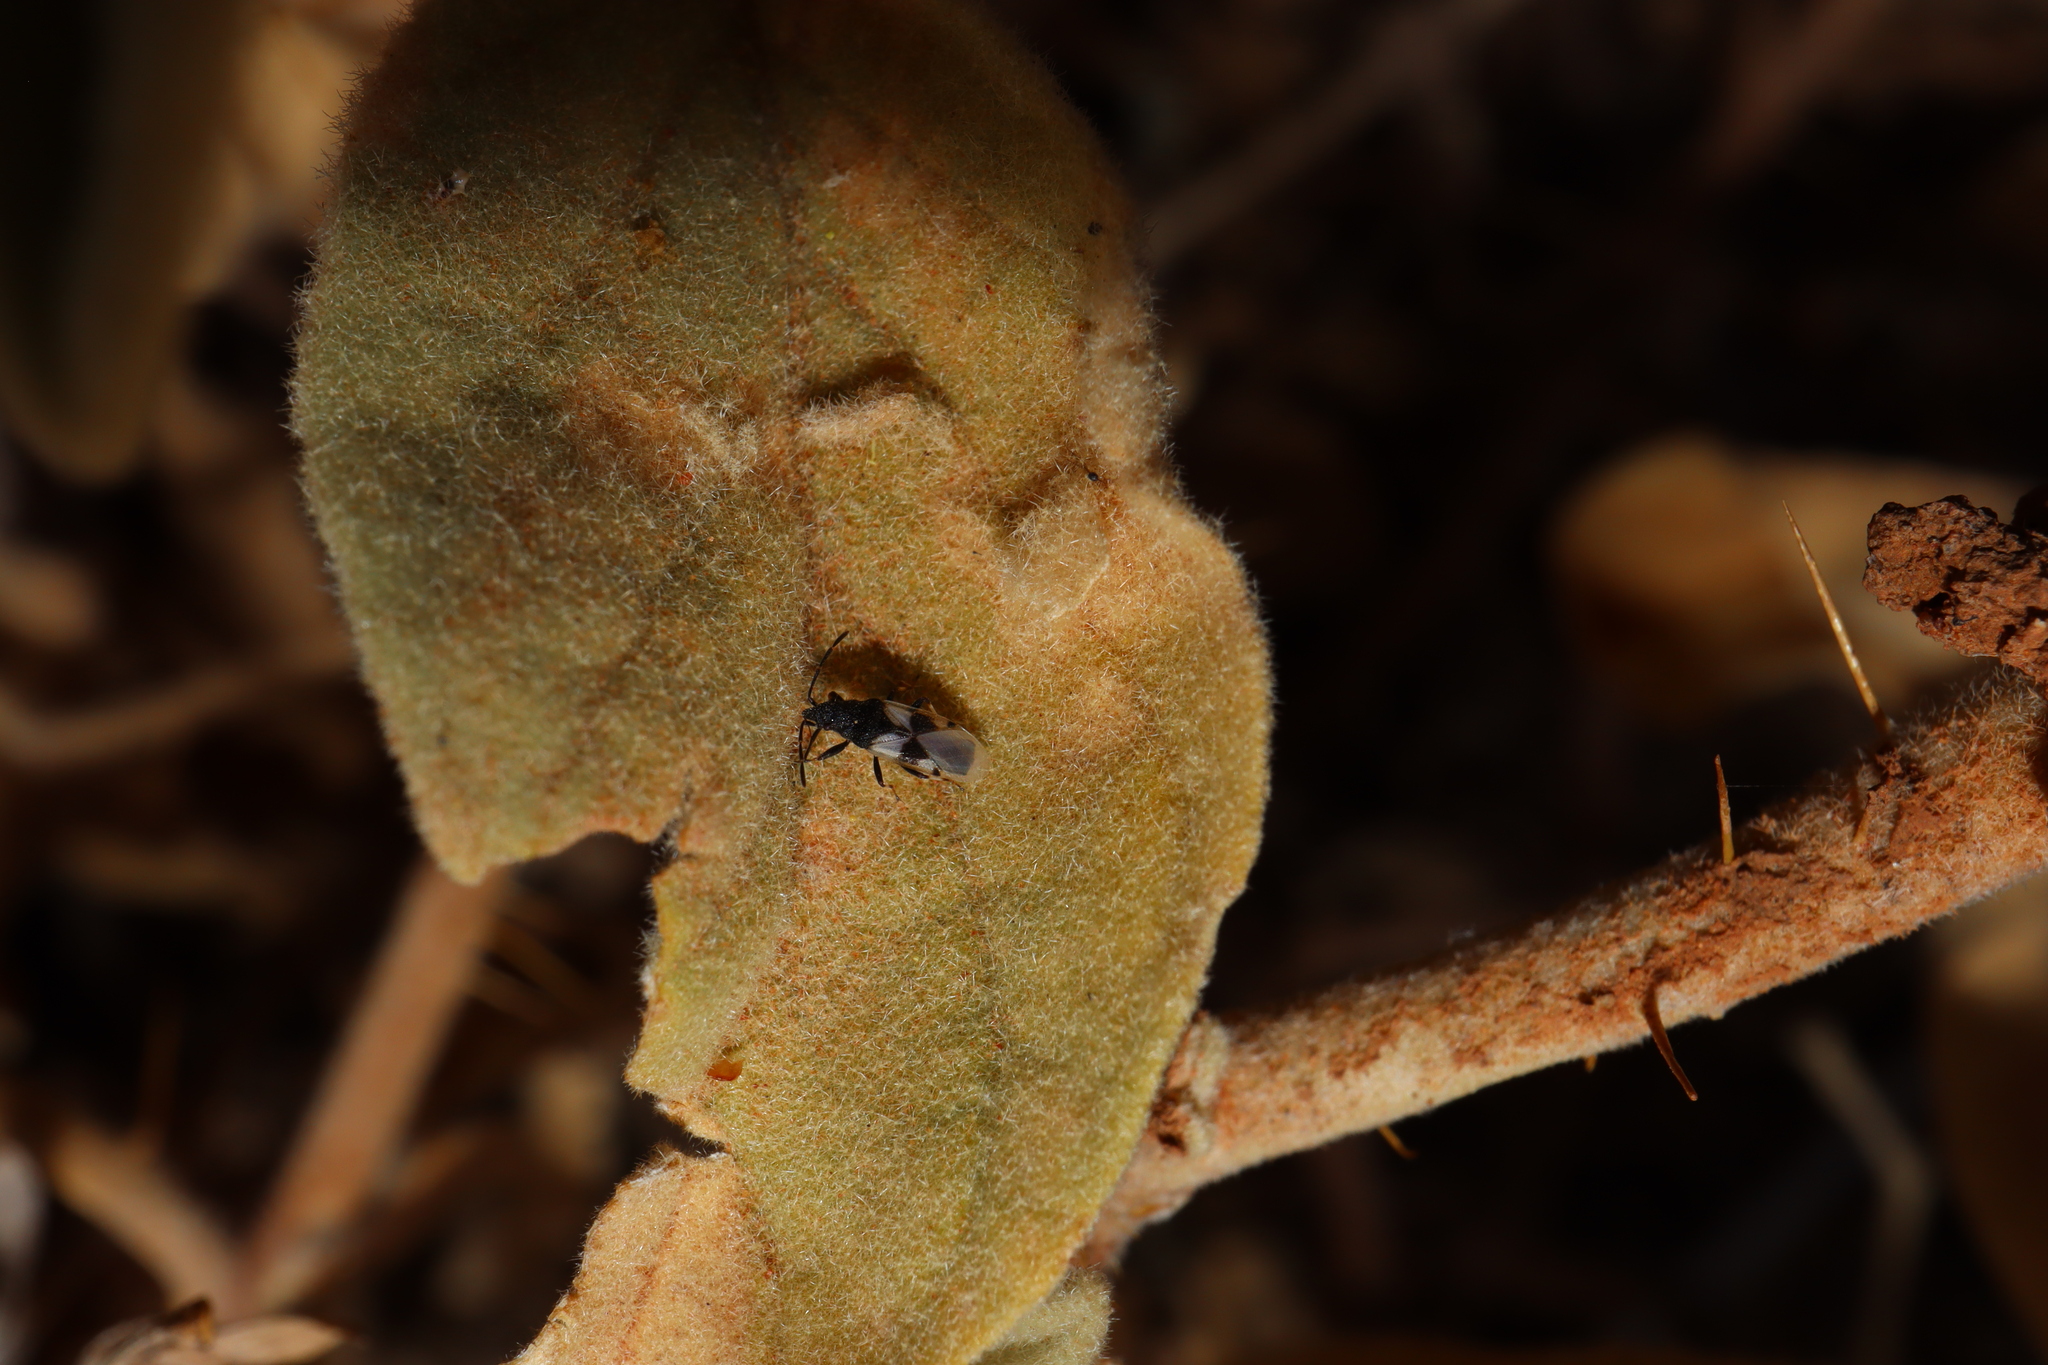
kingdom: Animalia
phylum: Arthropoda
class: Insecta
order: Hemiptera
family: Oxycarenidae
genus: Oxycarenus
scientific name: Oxycarenus arctatus
